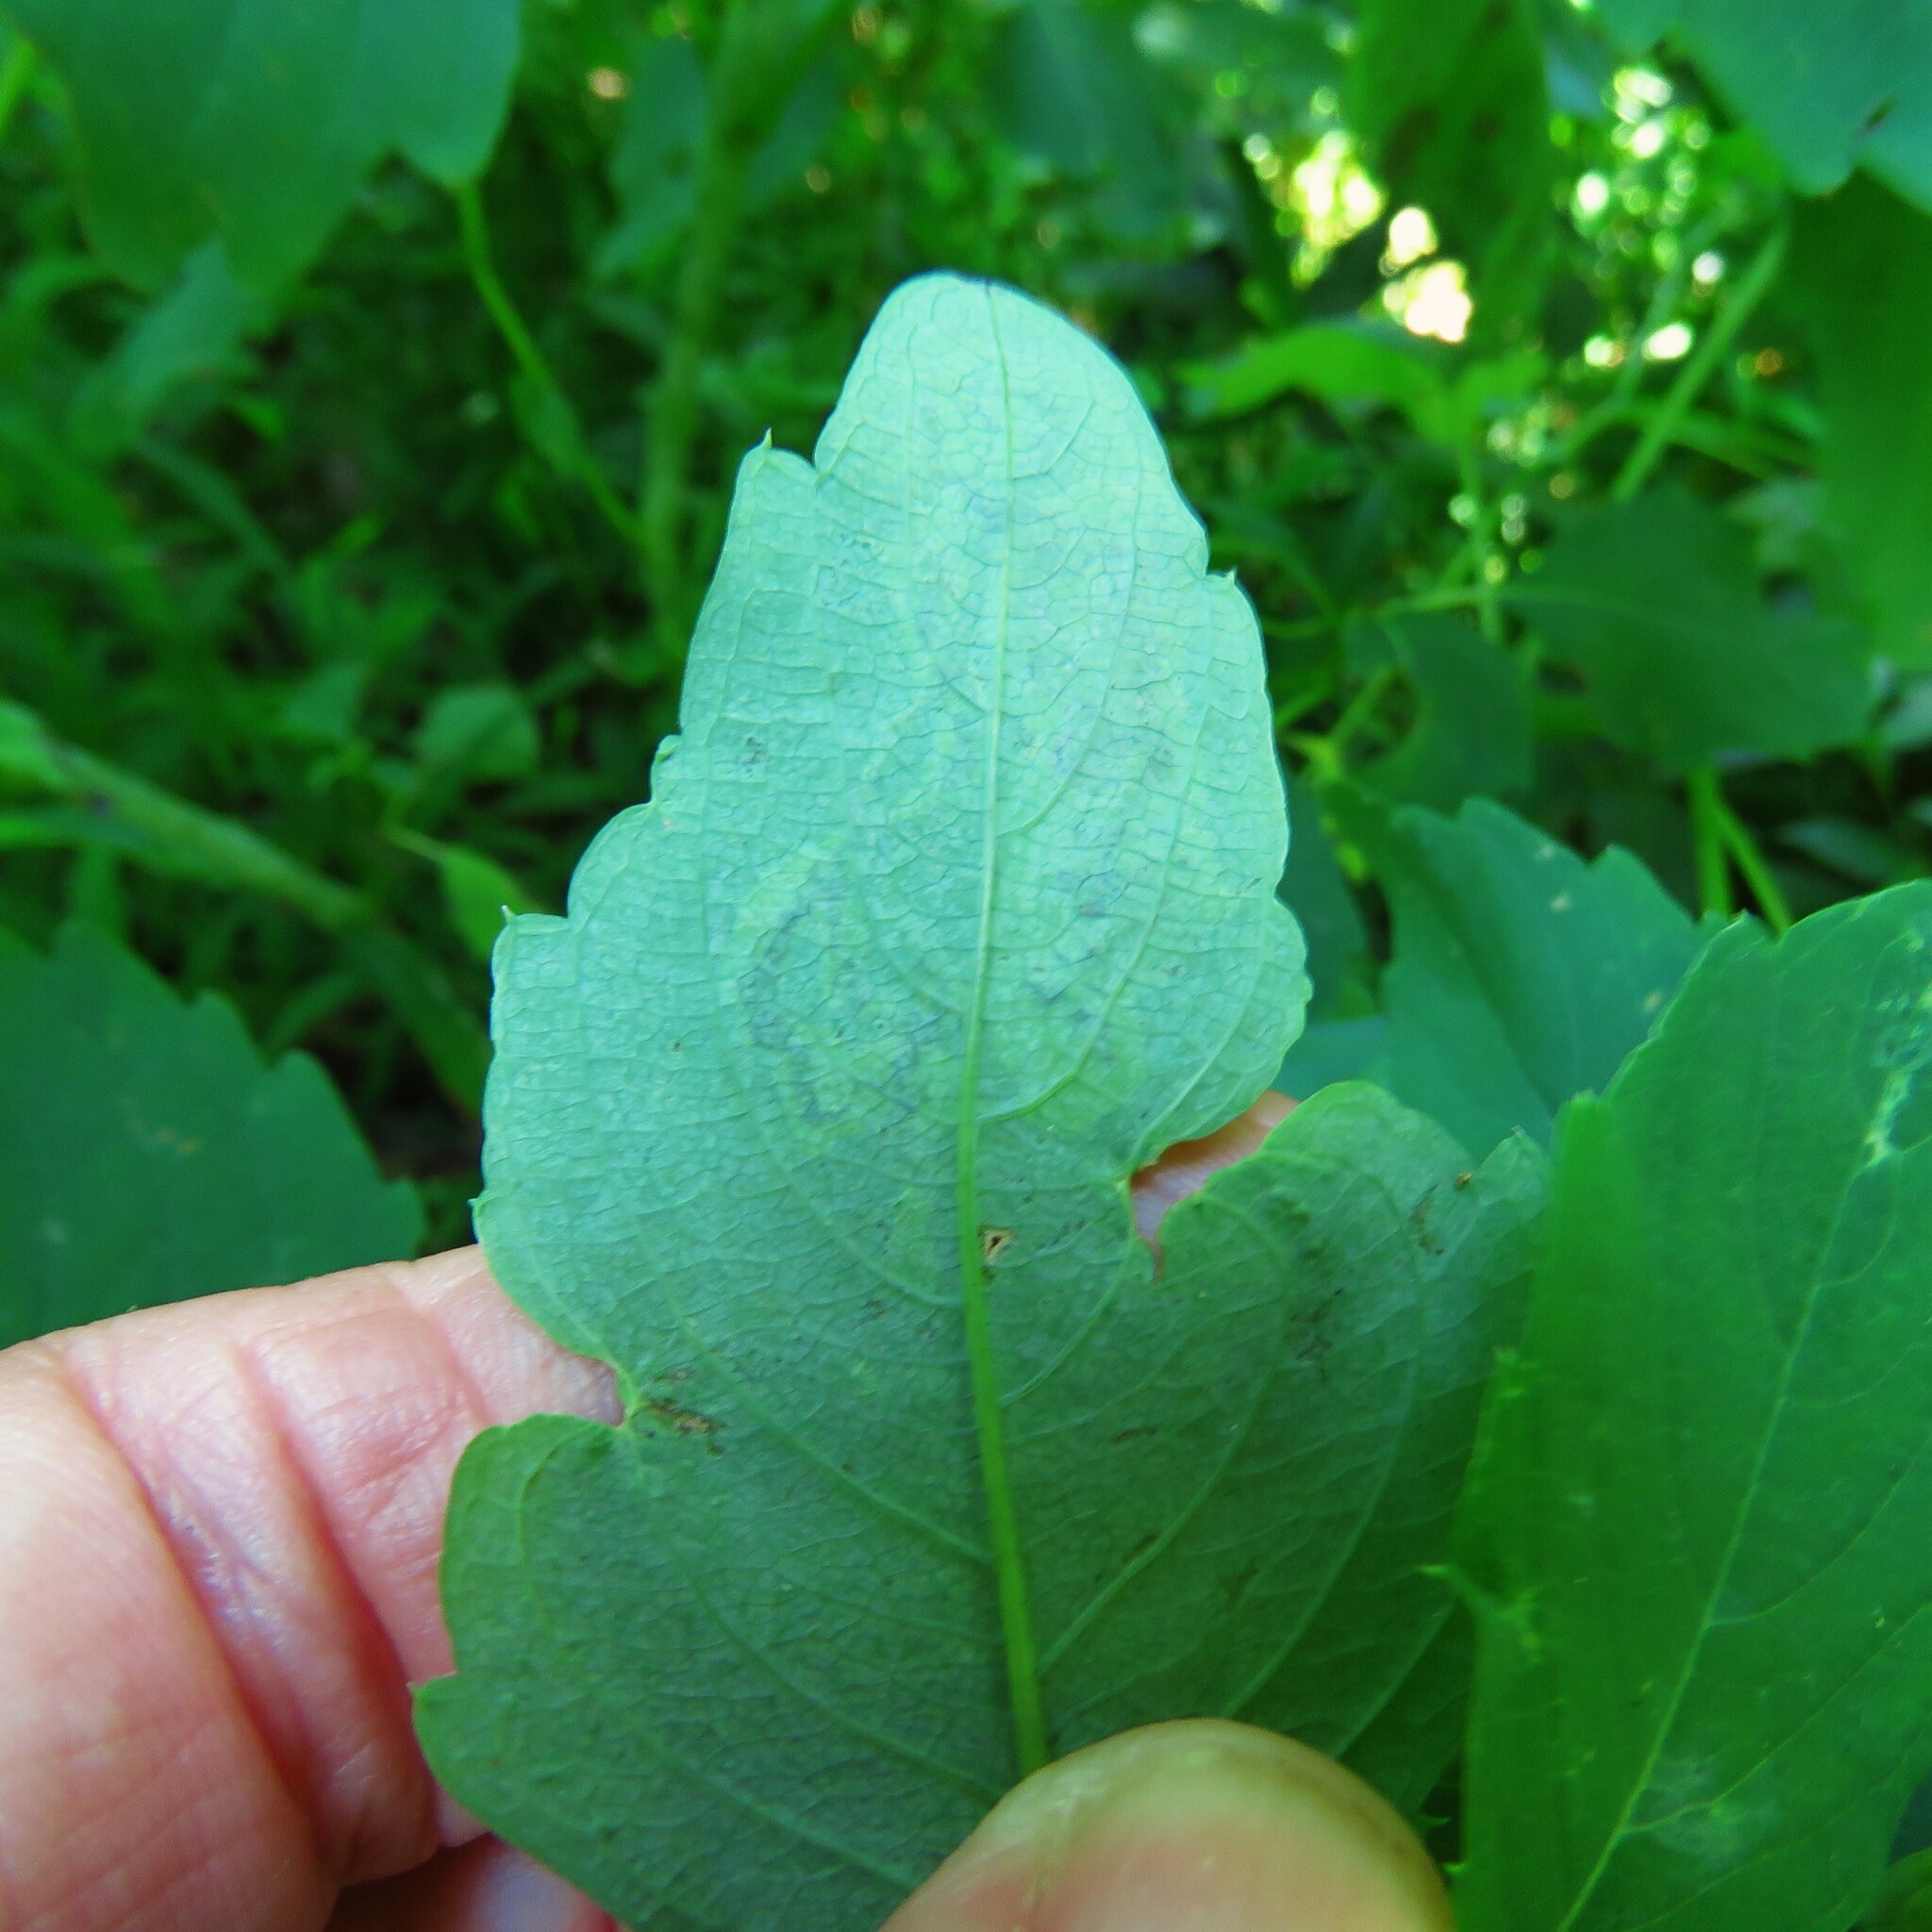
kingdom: Animalia
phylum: Arthropoda
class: Insecta
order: Diptera
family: Agromyzidae
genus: Phytoliriomyza
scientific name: Phytoliriomyza melampyga
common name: Jewelweed leaf-miner fly
